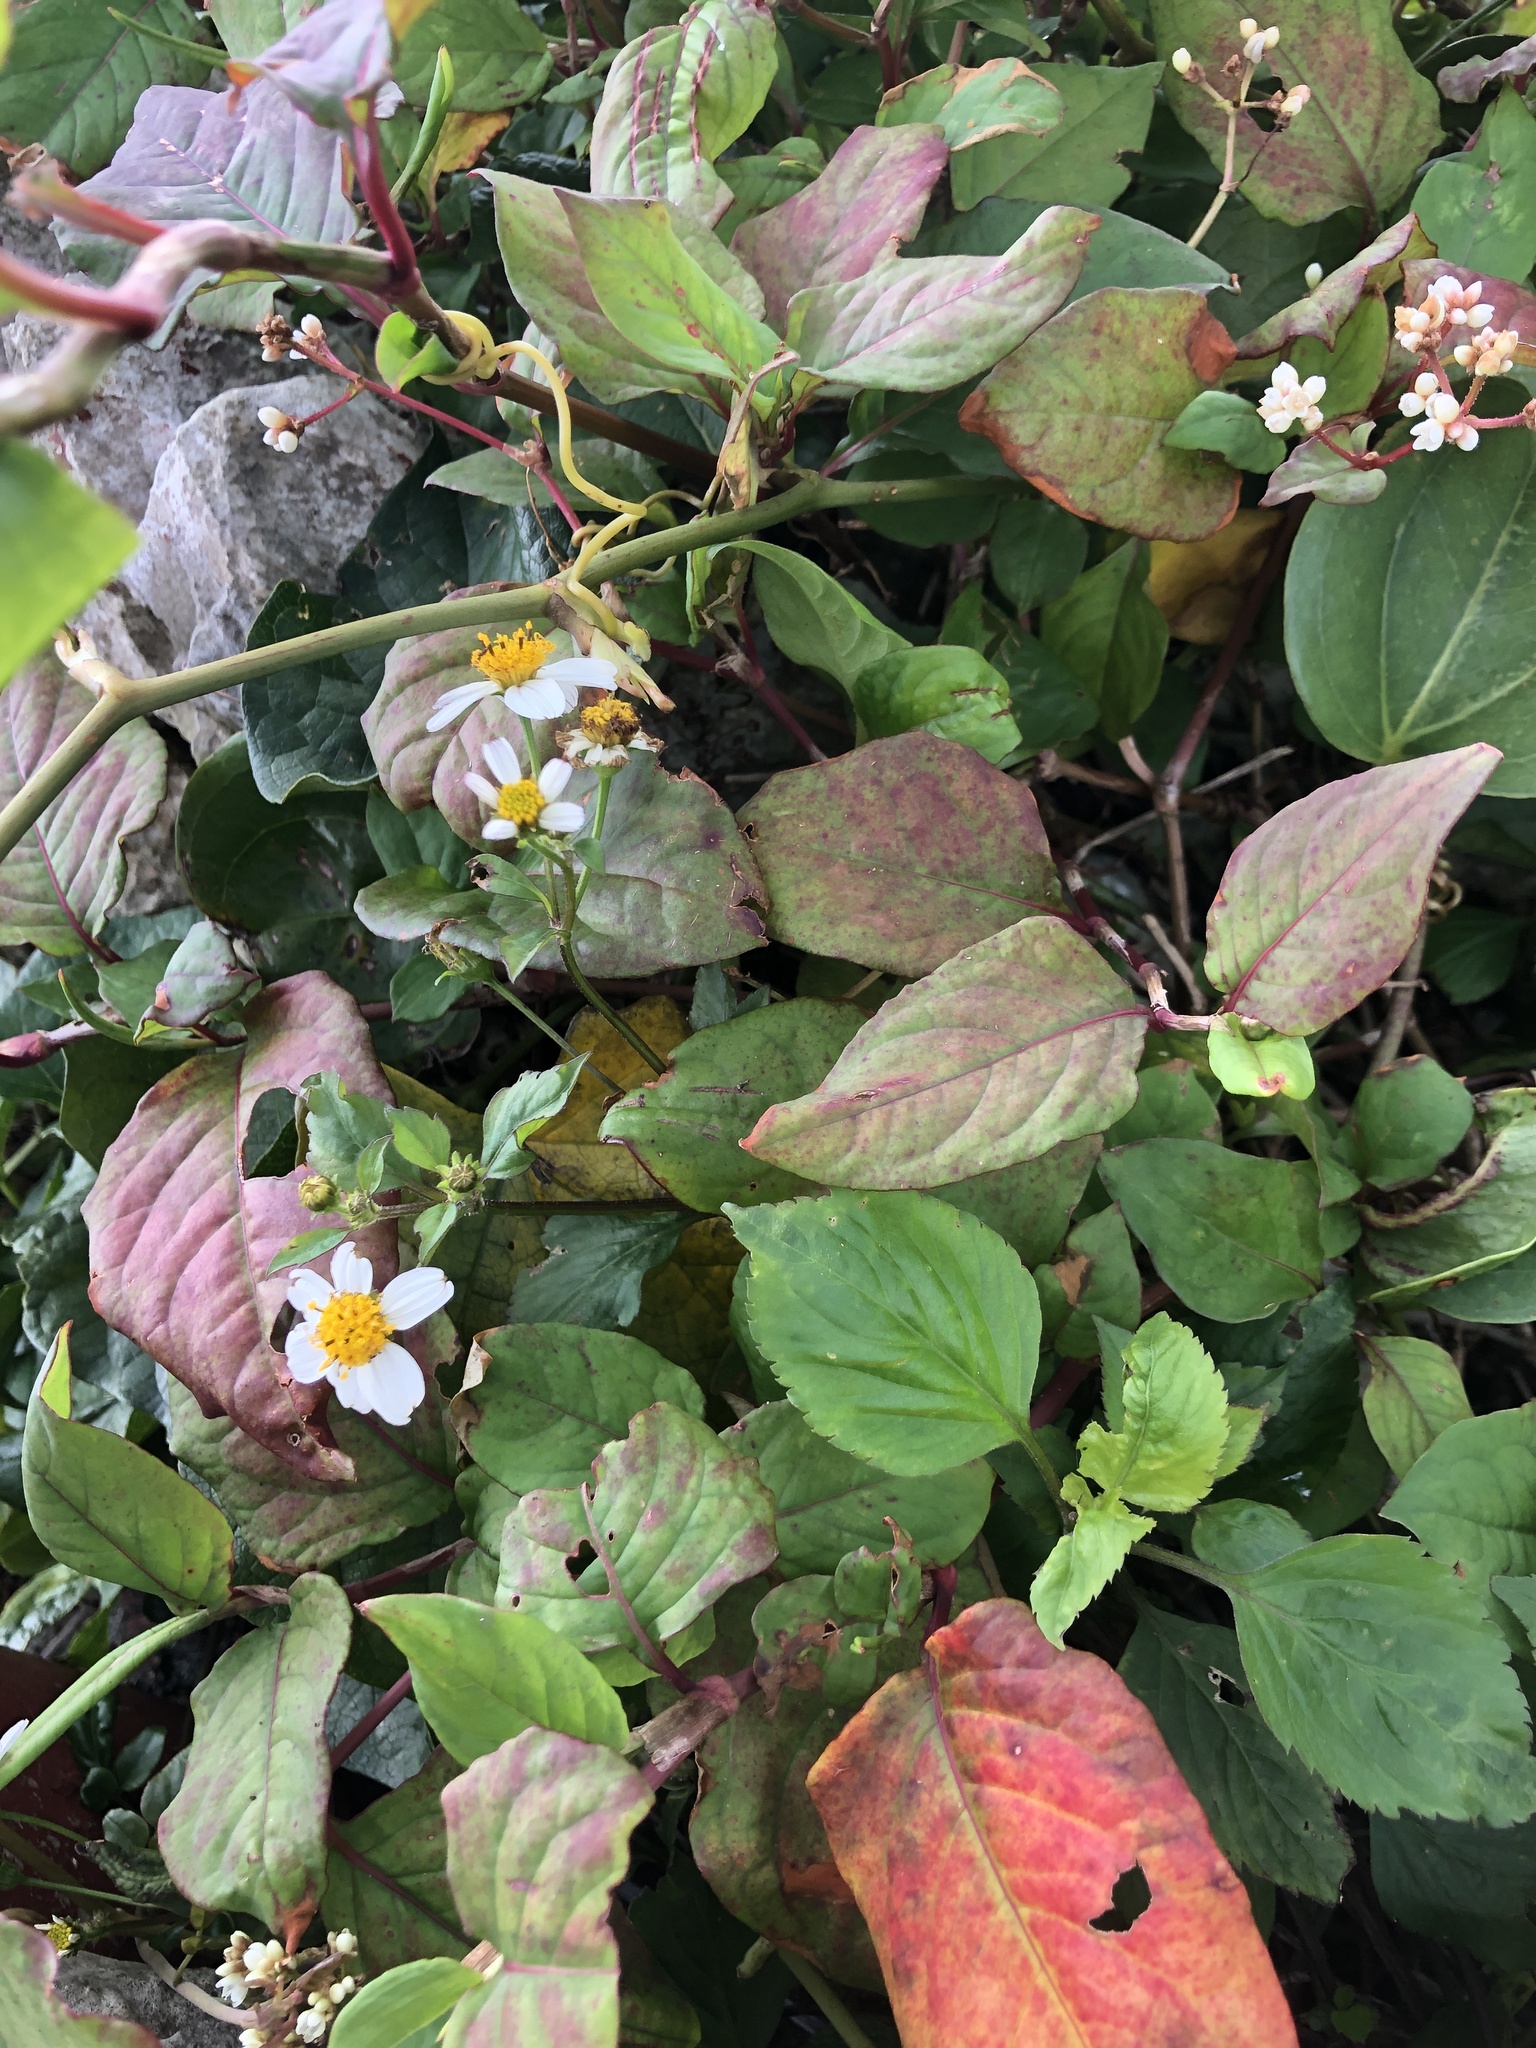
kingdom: Plantae
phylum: Tracheophyta
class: Magnoliopsida
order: Asterales
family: Asteraceae
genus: Bidens
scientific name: Bidens pilosa
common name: Black-jack
